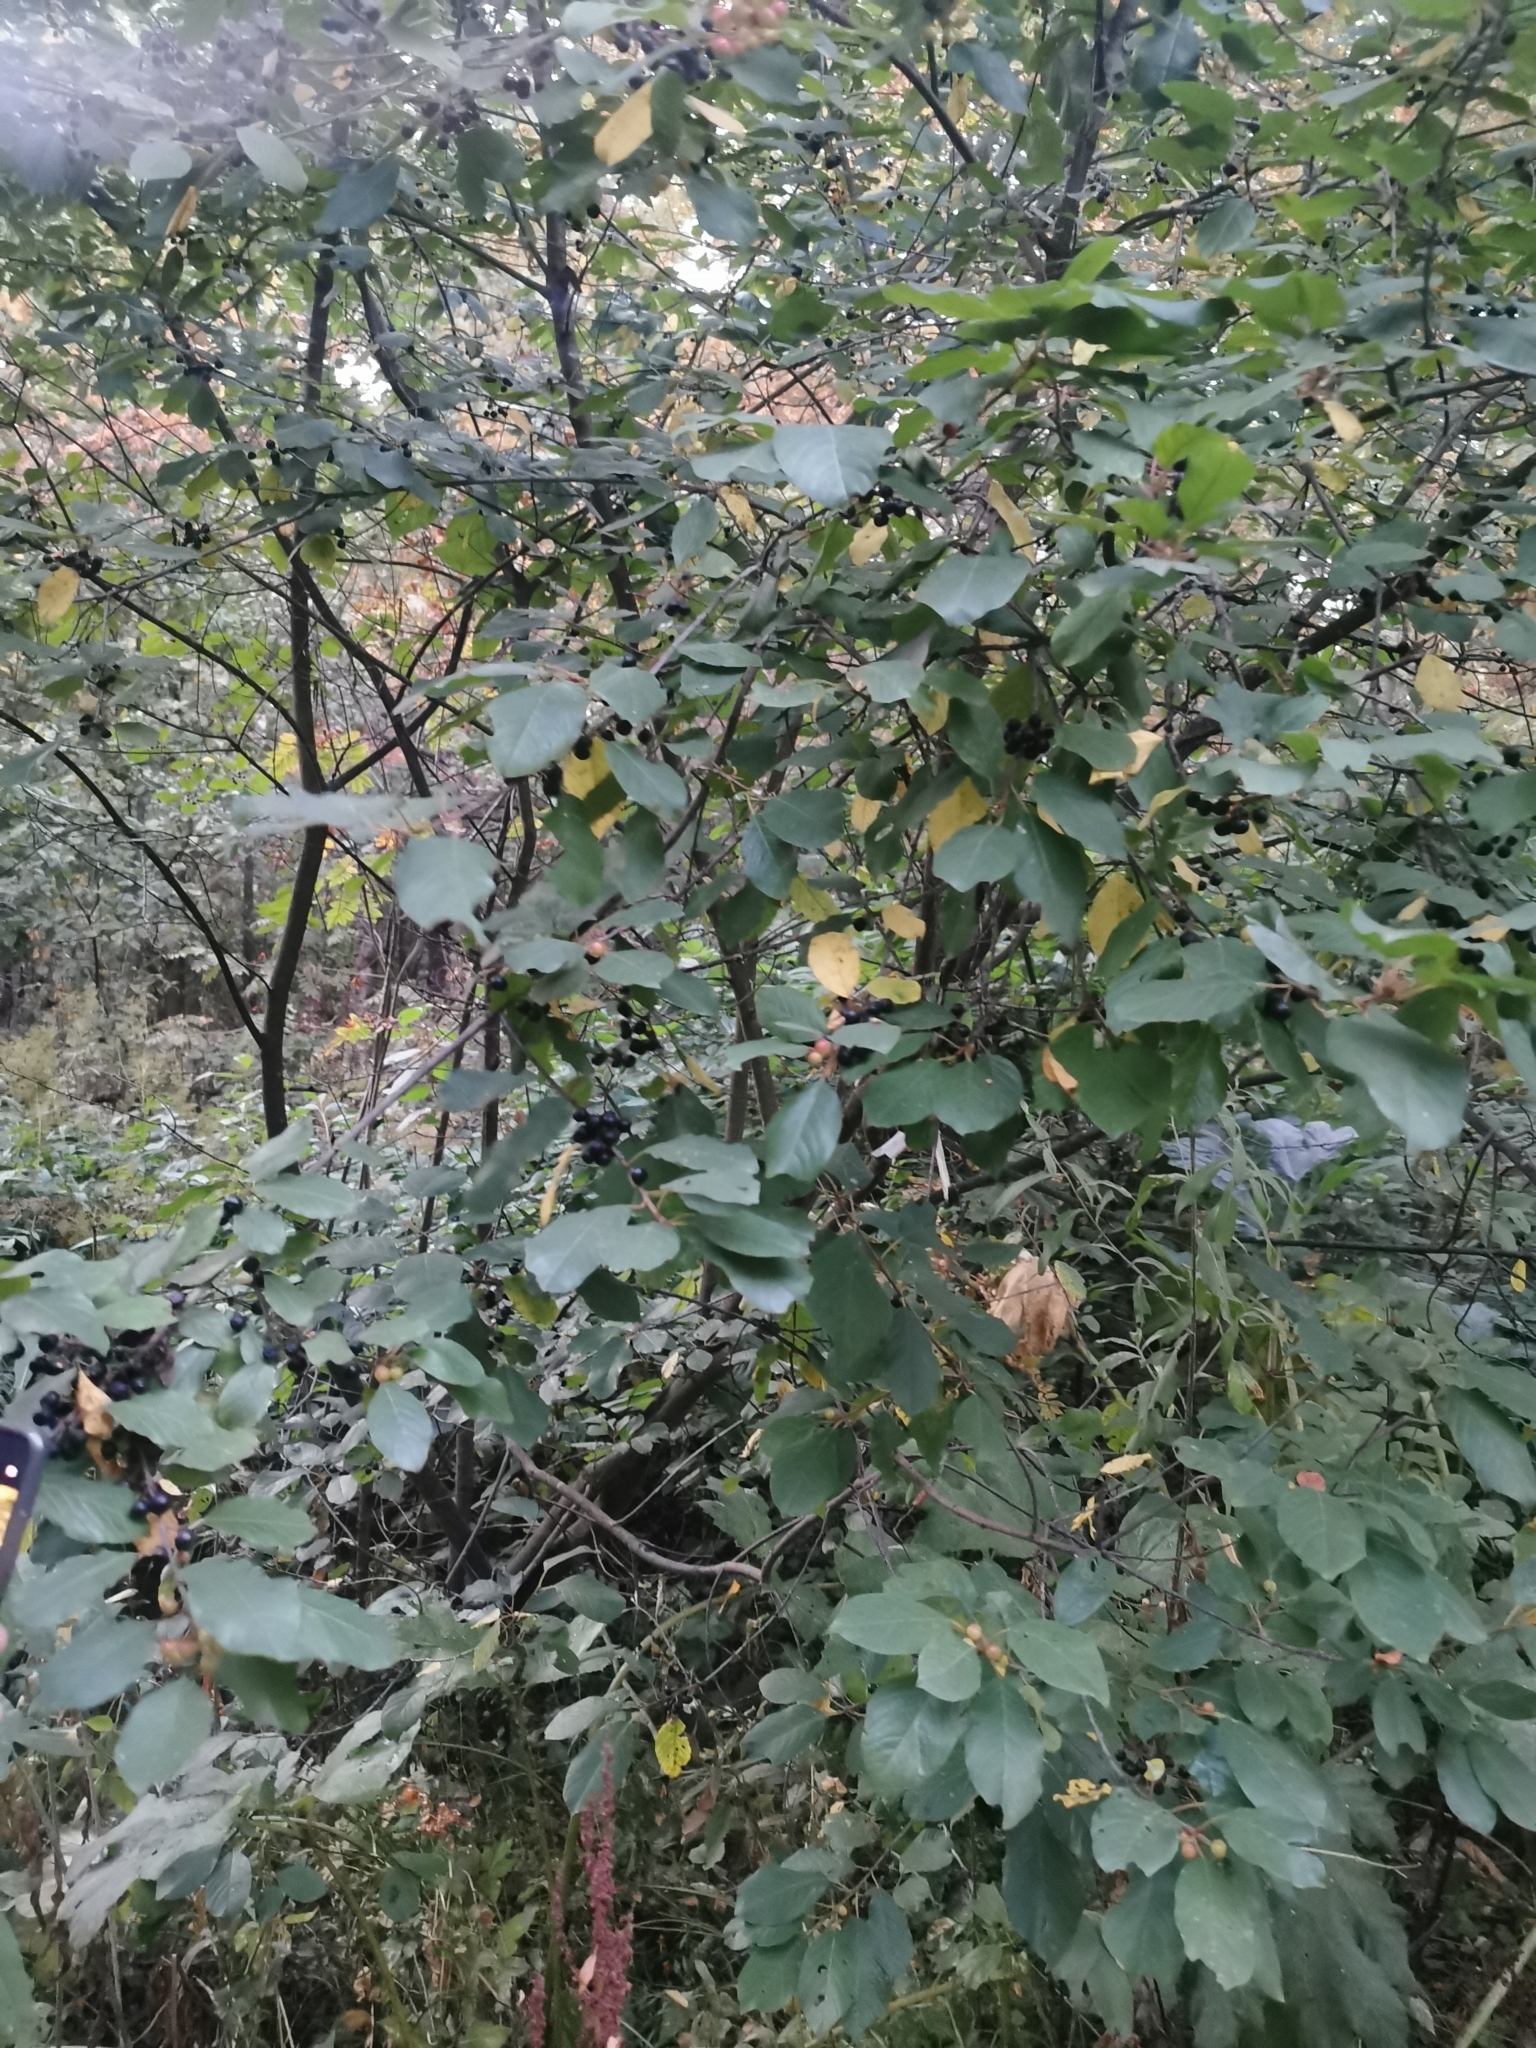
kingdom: Plantae
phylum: Tracheophyta
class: Magnoliopsida
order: Rosales
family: Rhamnaceae
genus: Frangula
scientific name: Frangula alnus
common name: Alder buckthorn
